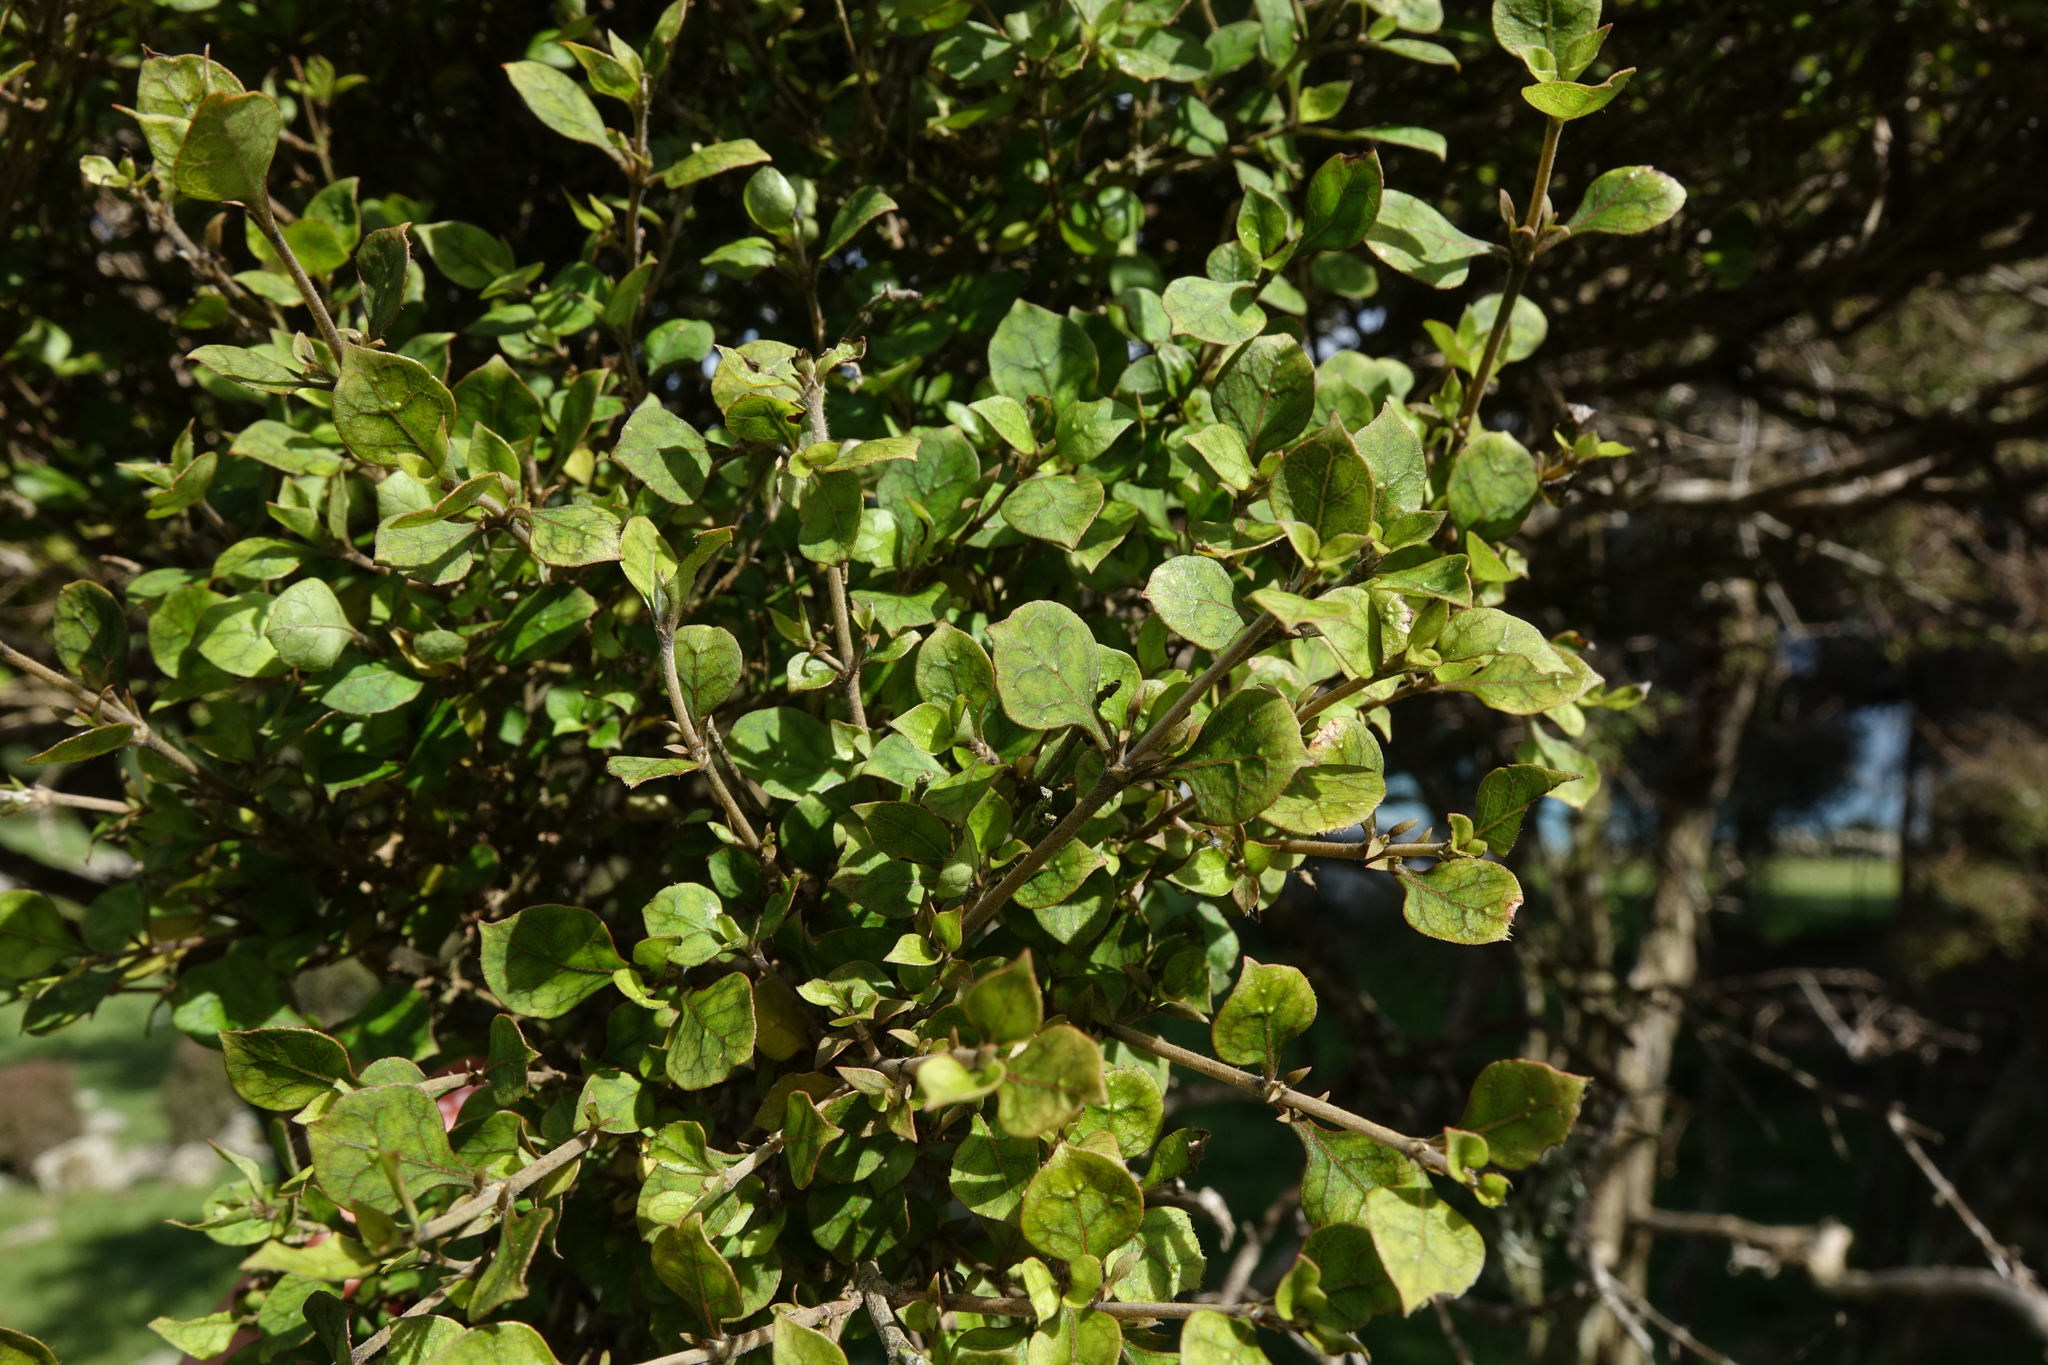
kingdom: Plantae
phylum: Tracheophyta
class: Magnoliopsida
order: Gentianales
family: Rubiaceae
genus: Coprosma
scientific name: Coprosma areolata
